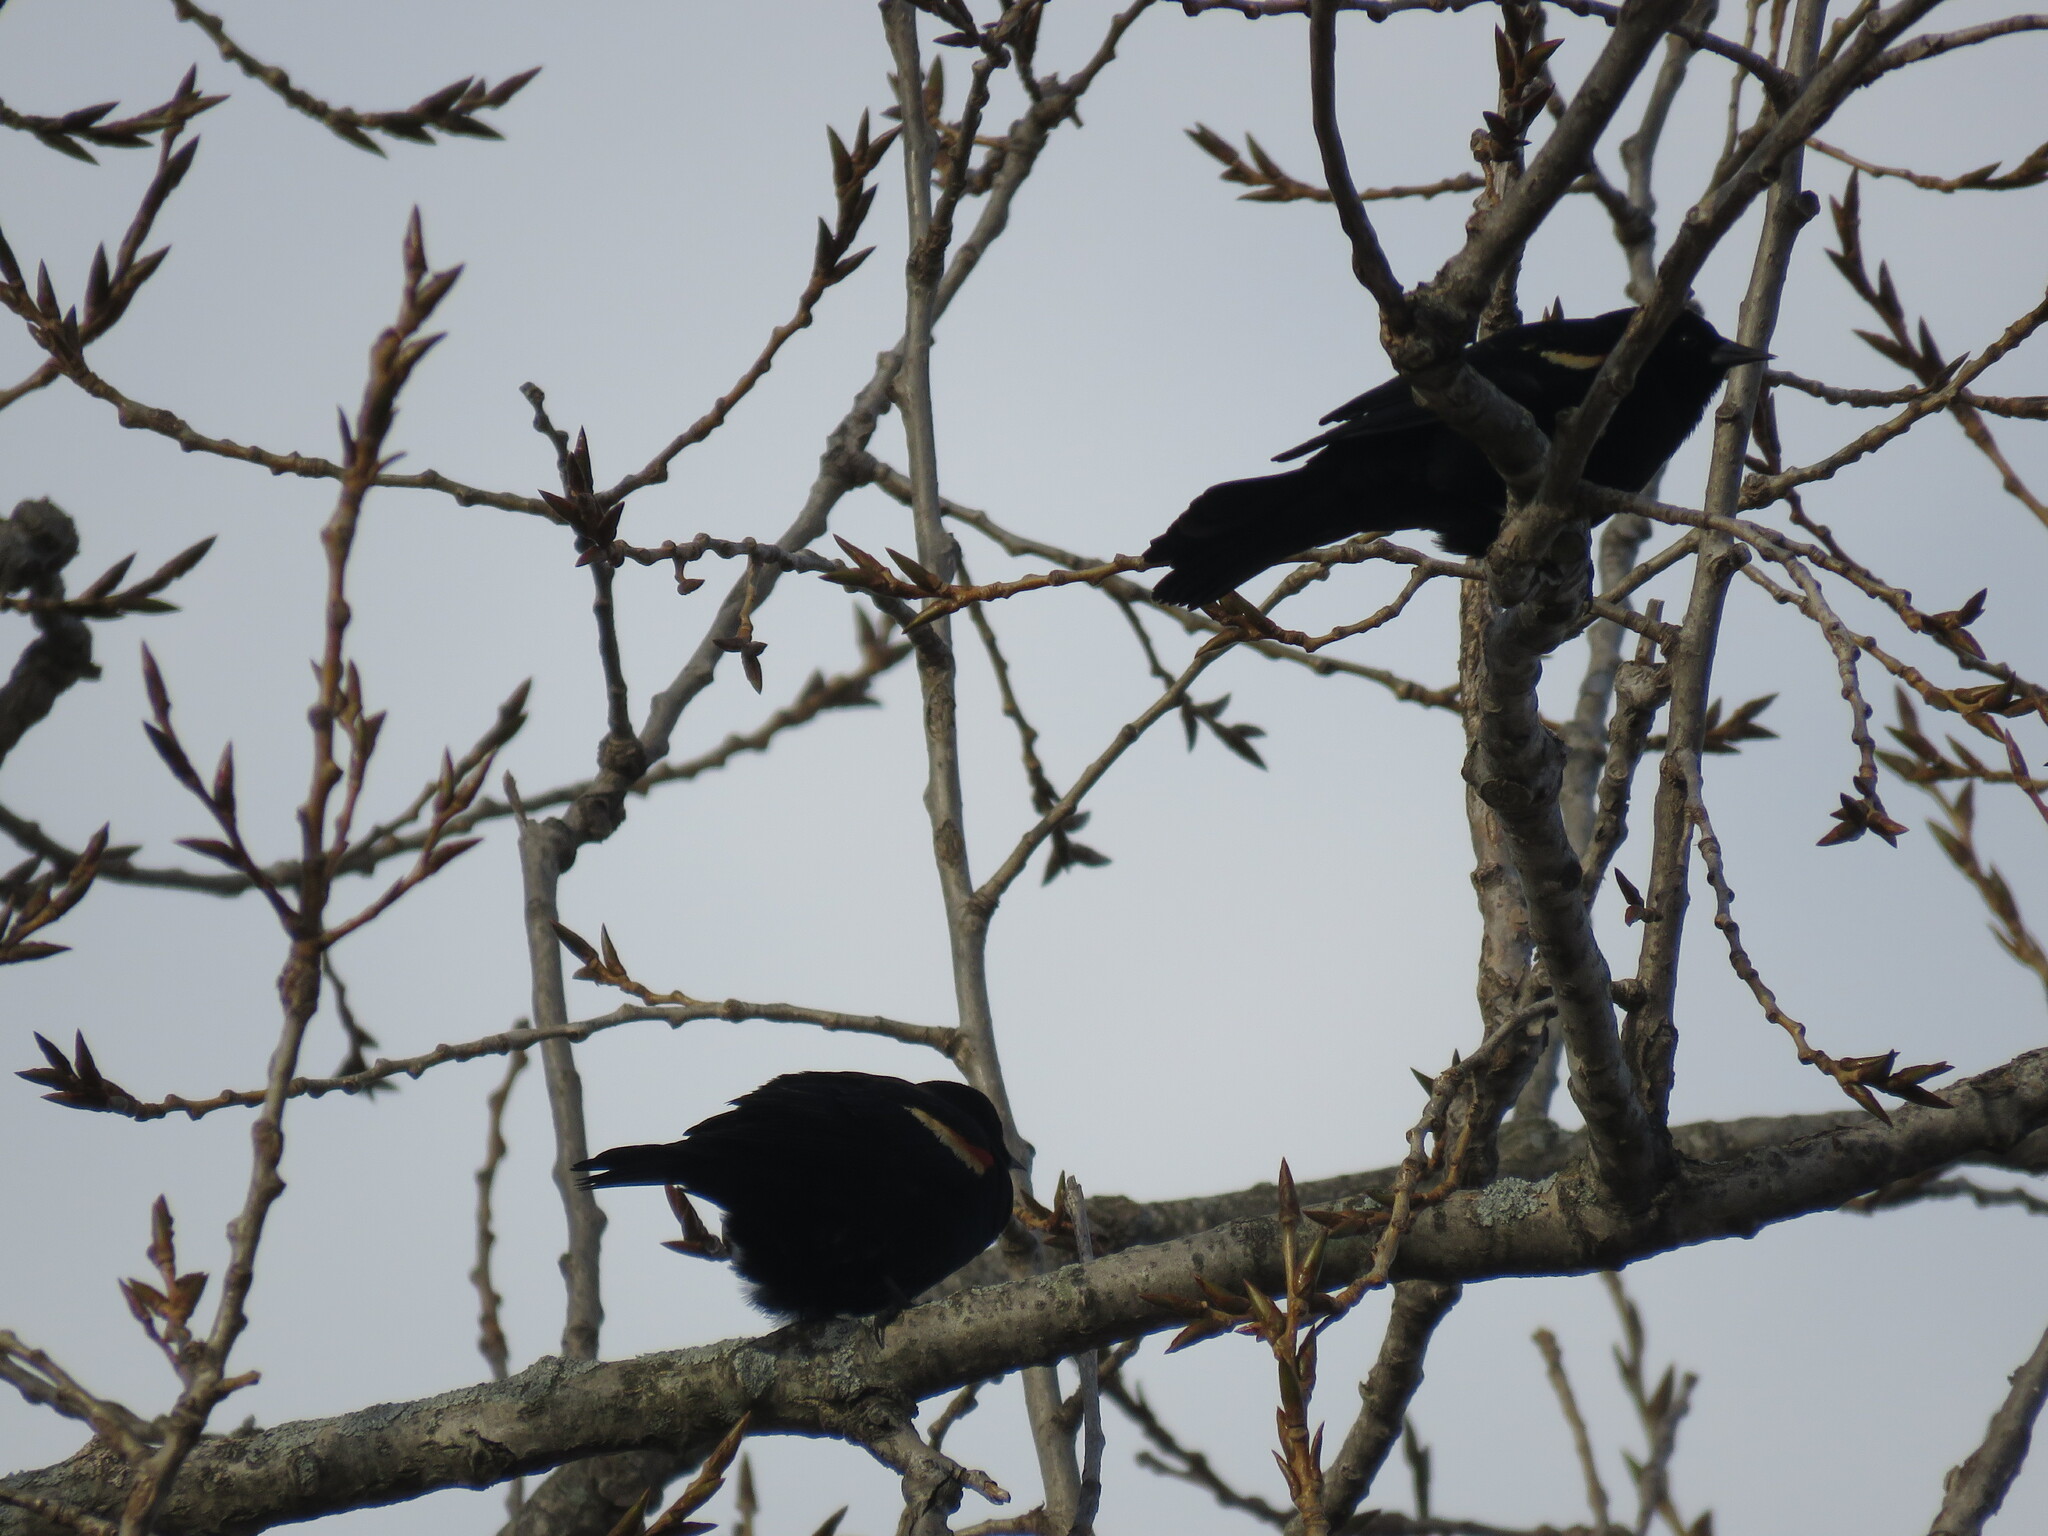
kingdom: Animalia
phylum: Chordata
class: Aves
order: Passeriformes
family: Icteridae
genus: Agelaius
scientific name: Agelaius phoeniceus
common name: Red-winged blackbird
